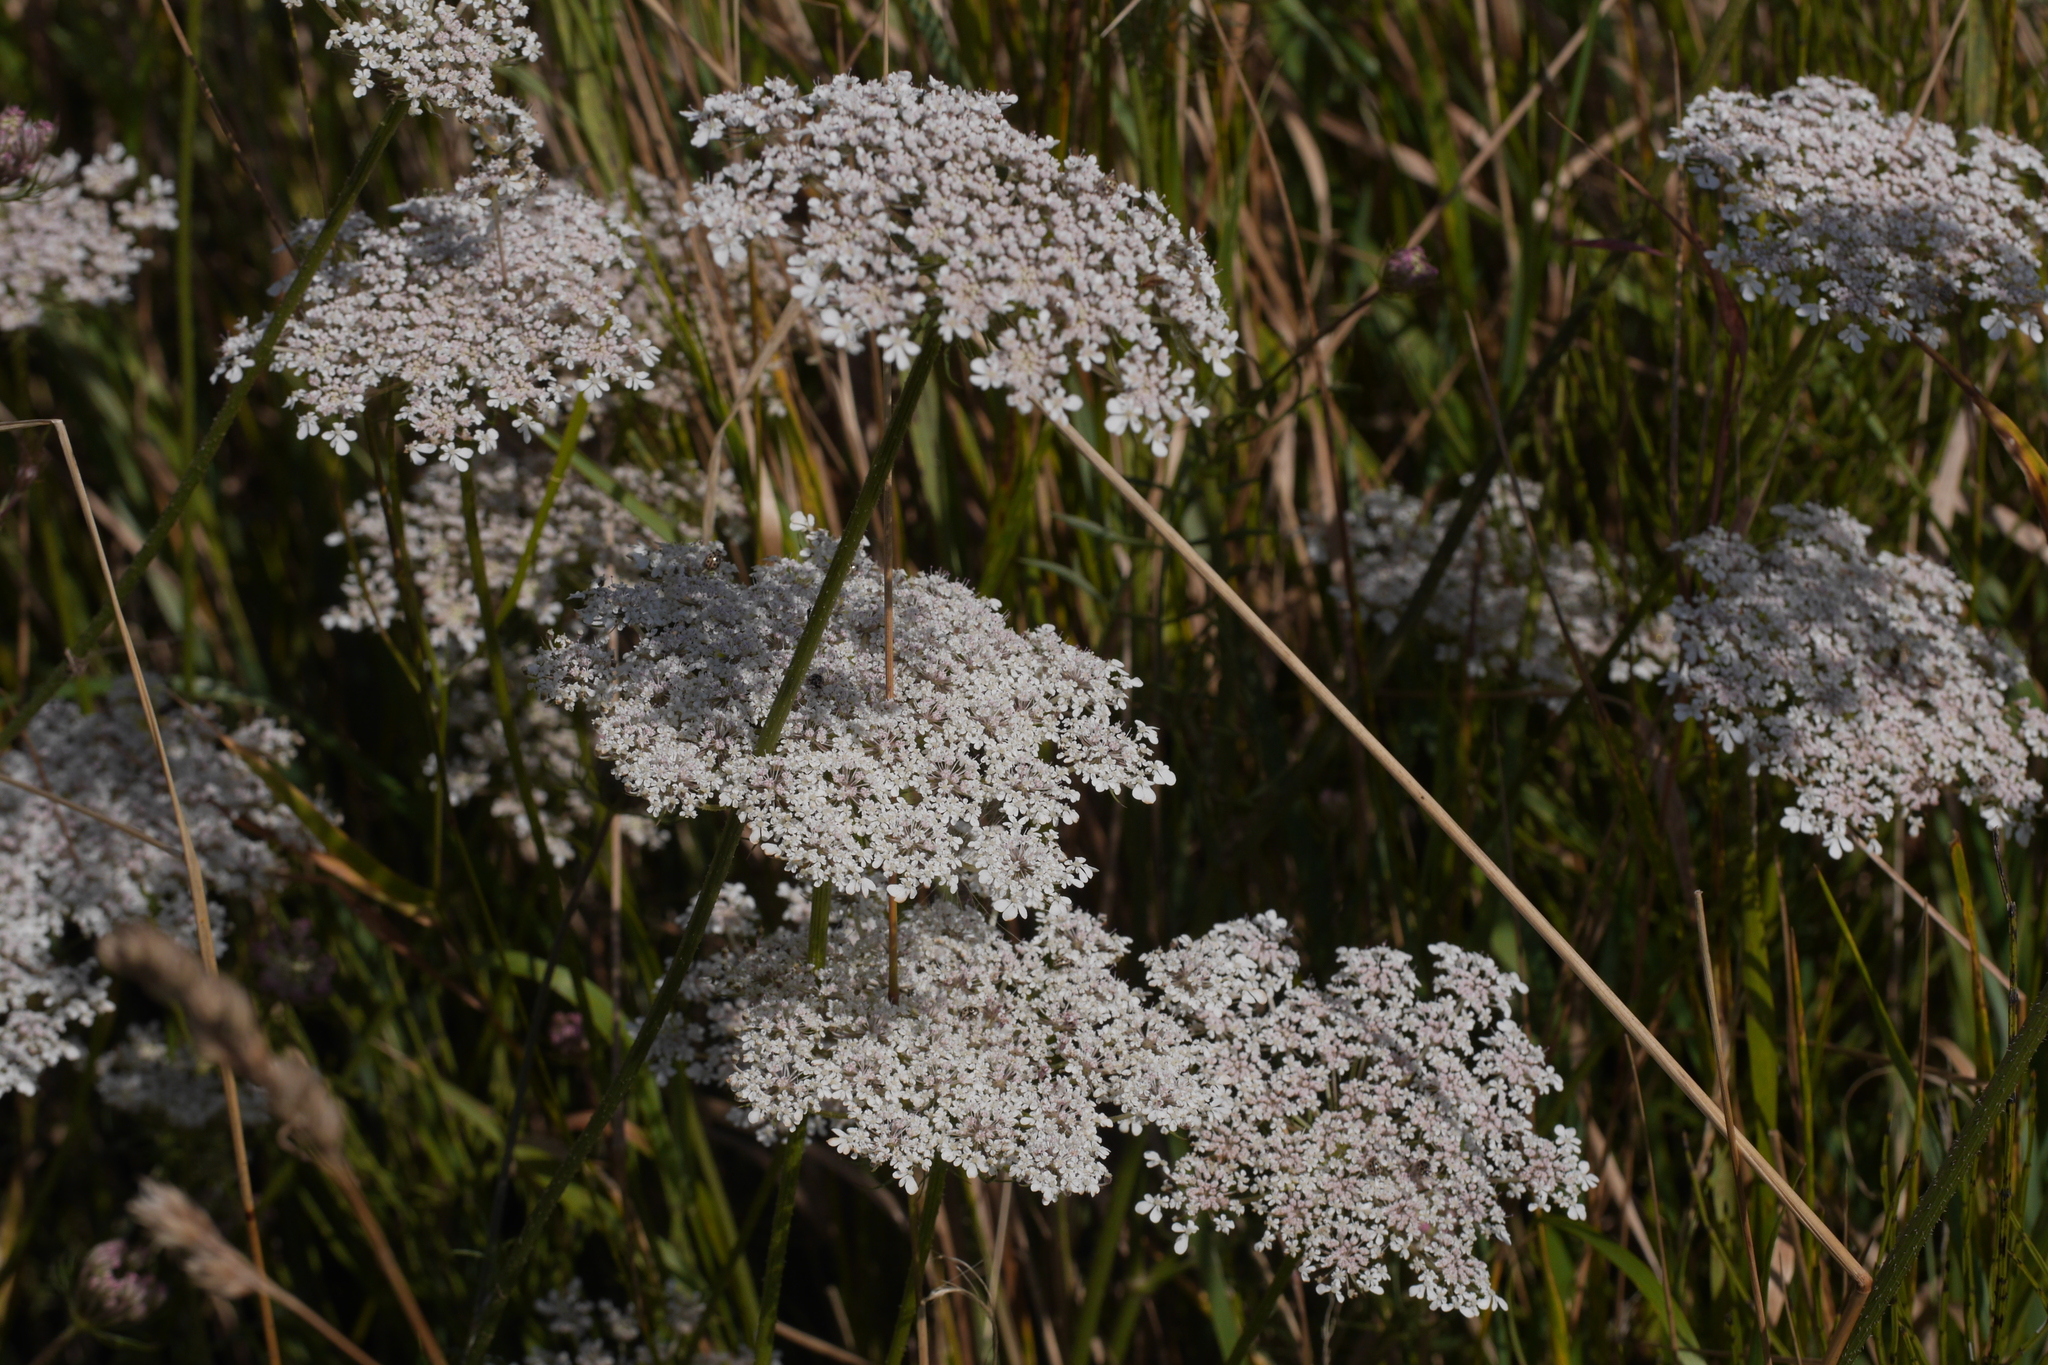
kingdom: Plantae
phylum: Tracheophyta
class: Magnoliopsida
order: Apiales
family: Apiaceae
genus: Daucus
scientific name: Daucus carota
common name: Wild carrot
